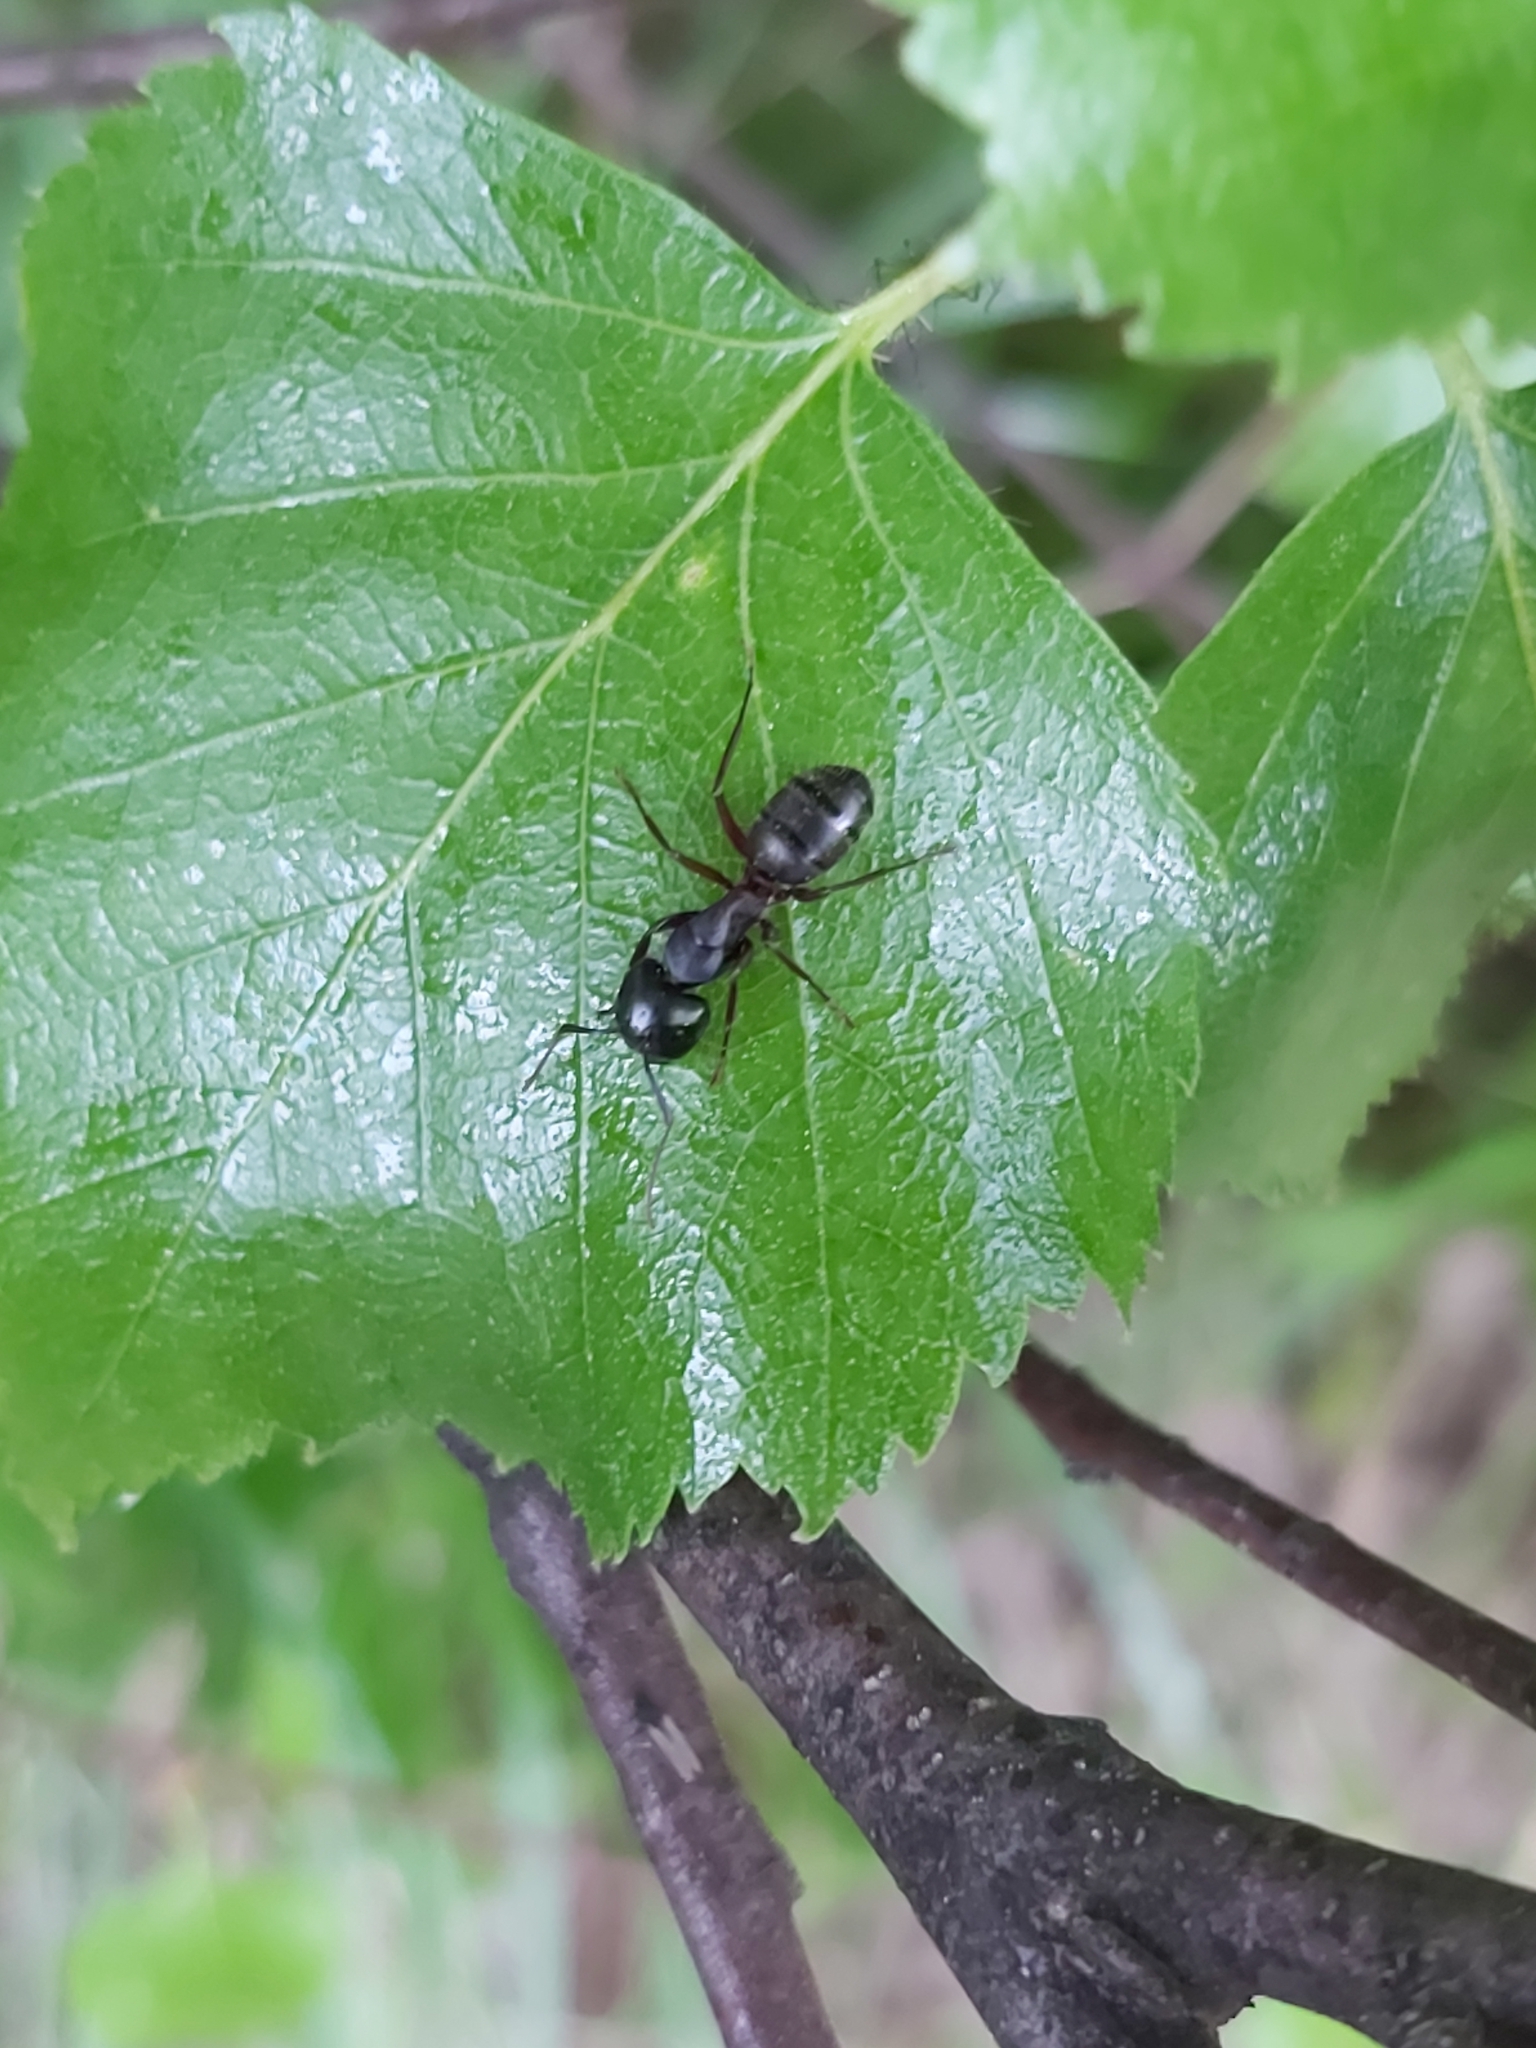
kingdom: Animalia
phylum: Arthropoda
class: Insecta
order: Hymenoptera
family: Formicidae
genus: Camponotus
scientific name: Camponotus herculeanus
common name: Hercules ant
